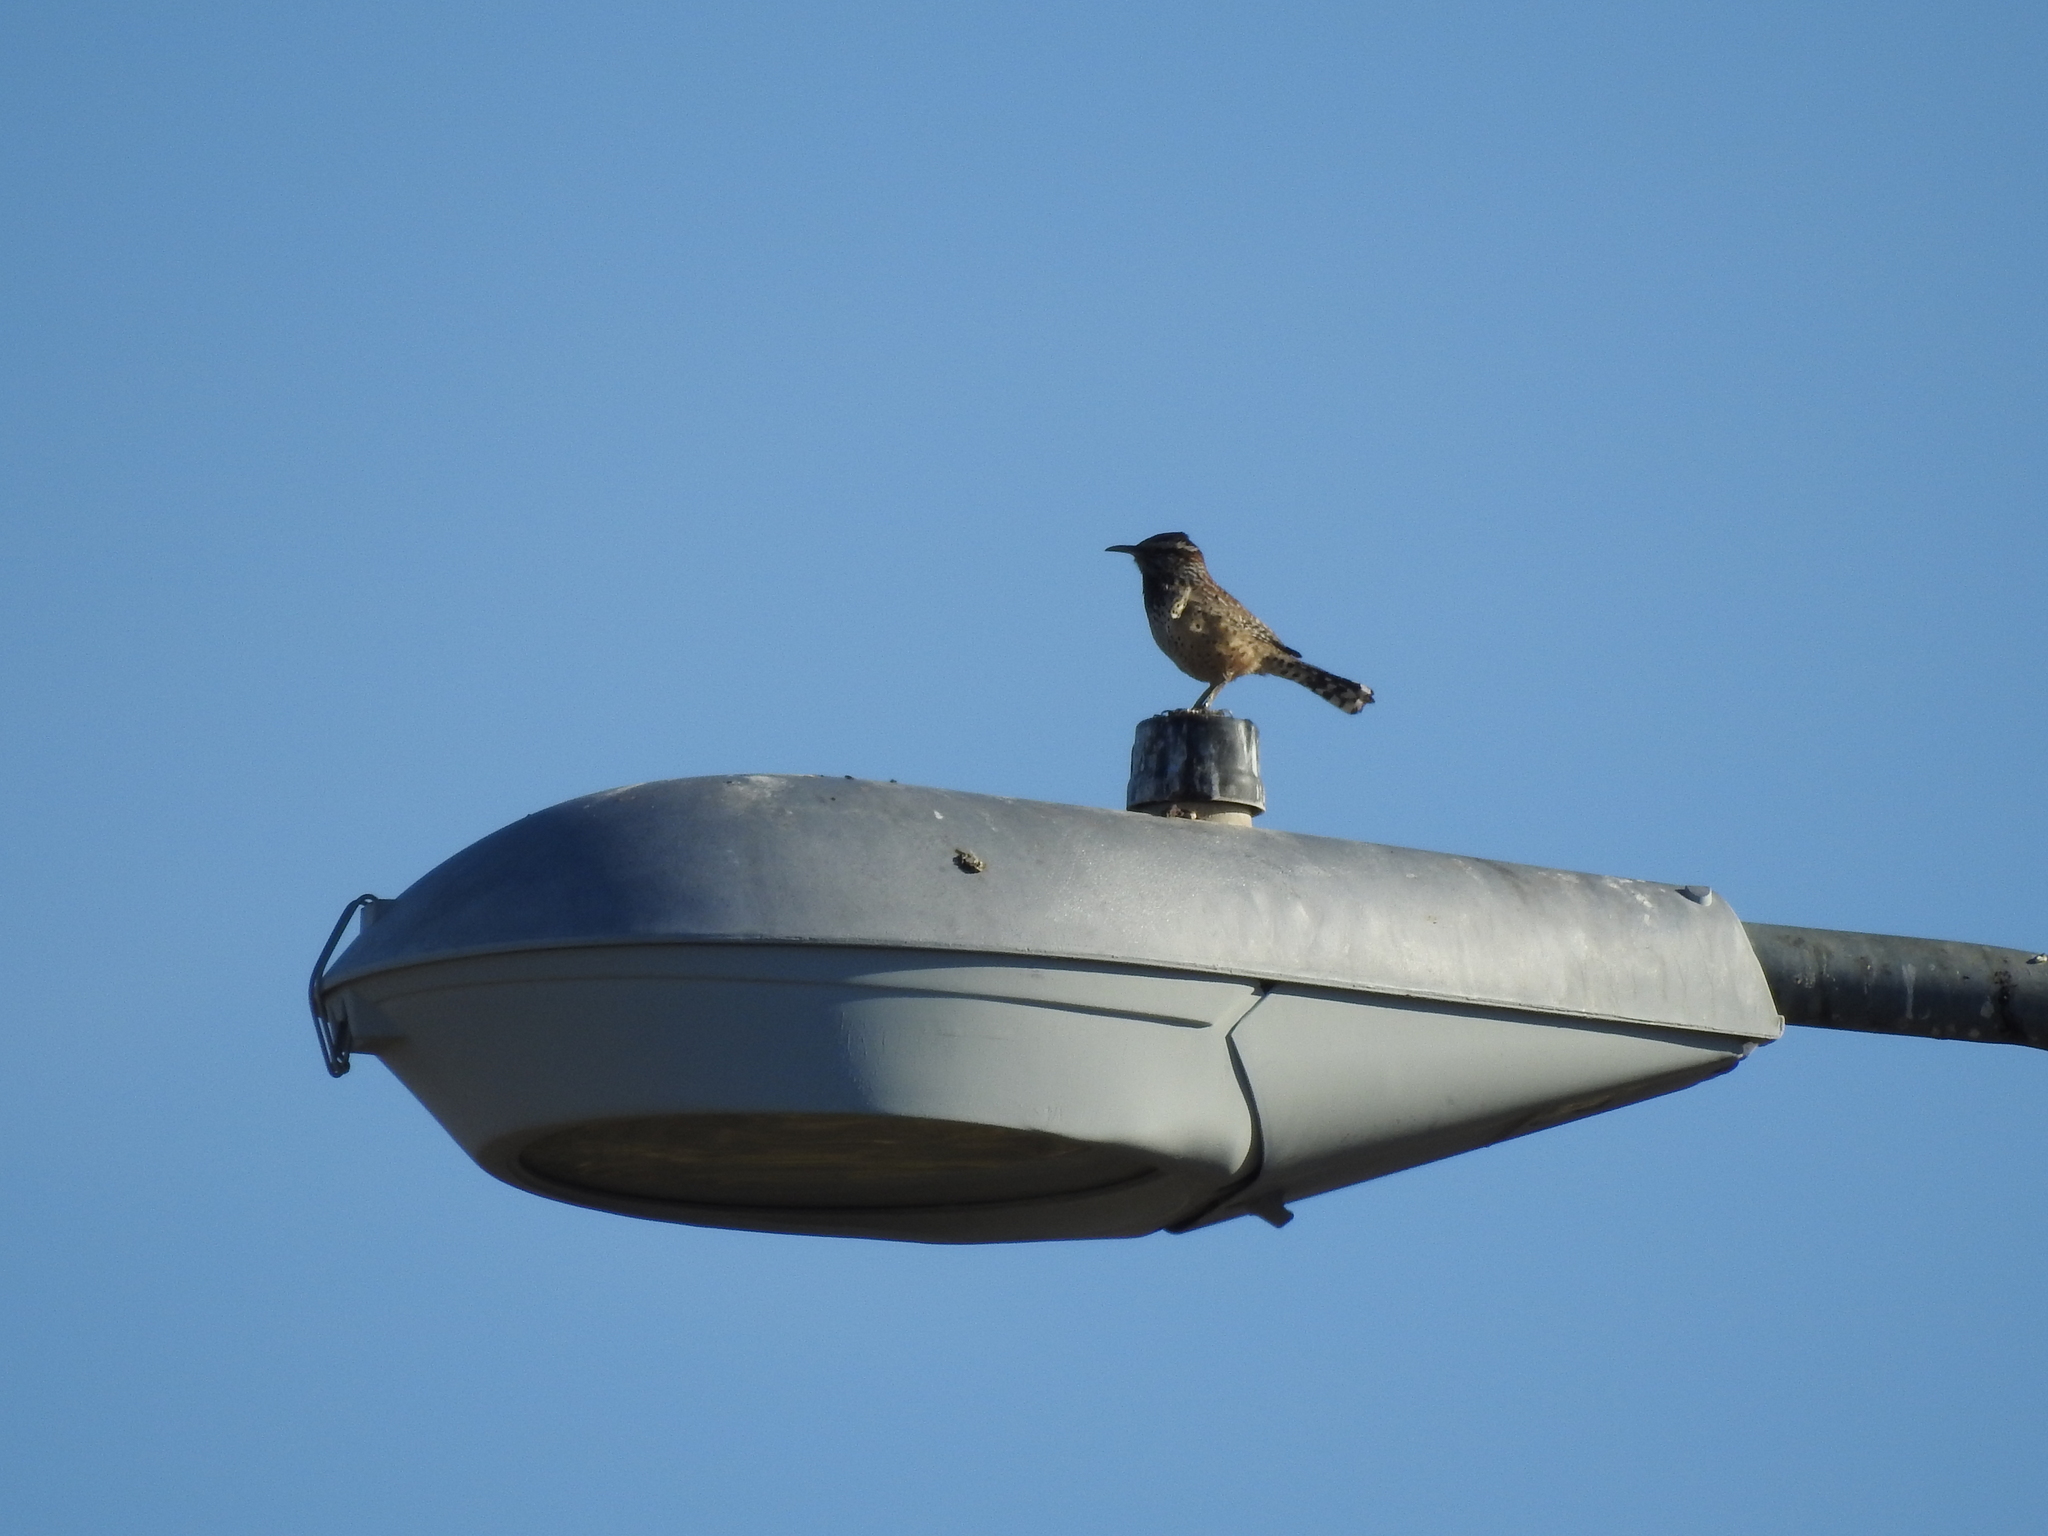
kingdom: Animalia
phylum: Chordata
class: Aves
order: Passeriformes
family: Troglodytidae
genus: Campylorhynchus
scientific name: Campylorhynchus brunneicapillus
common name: Cactus wren
